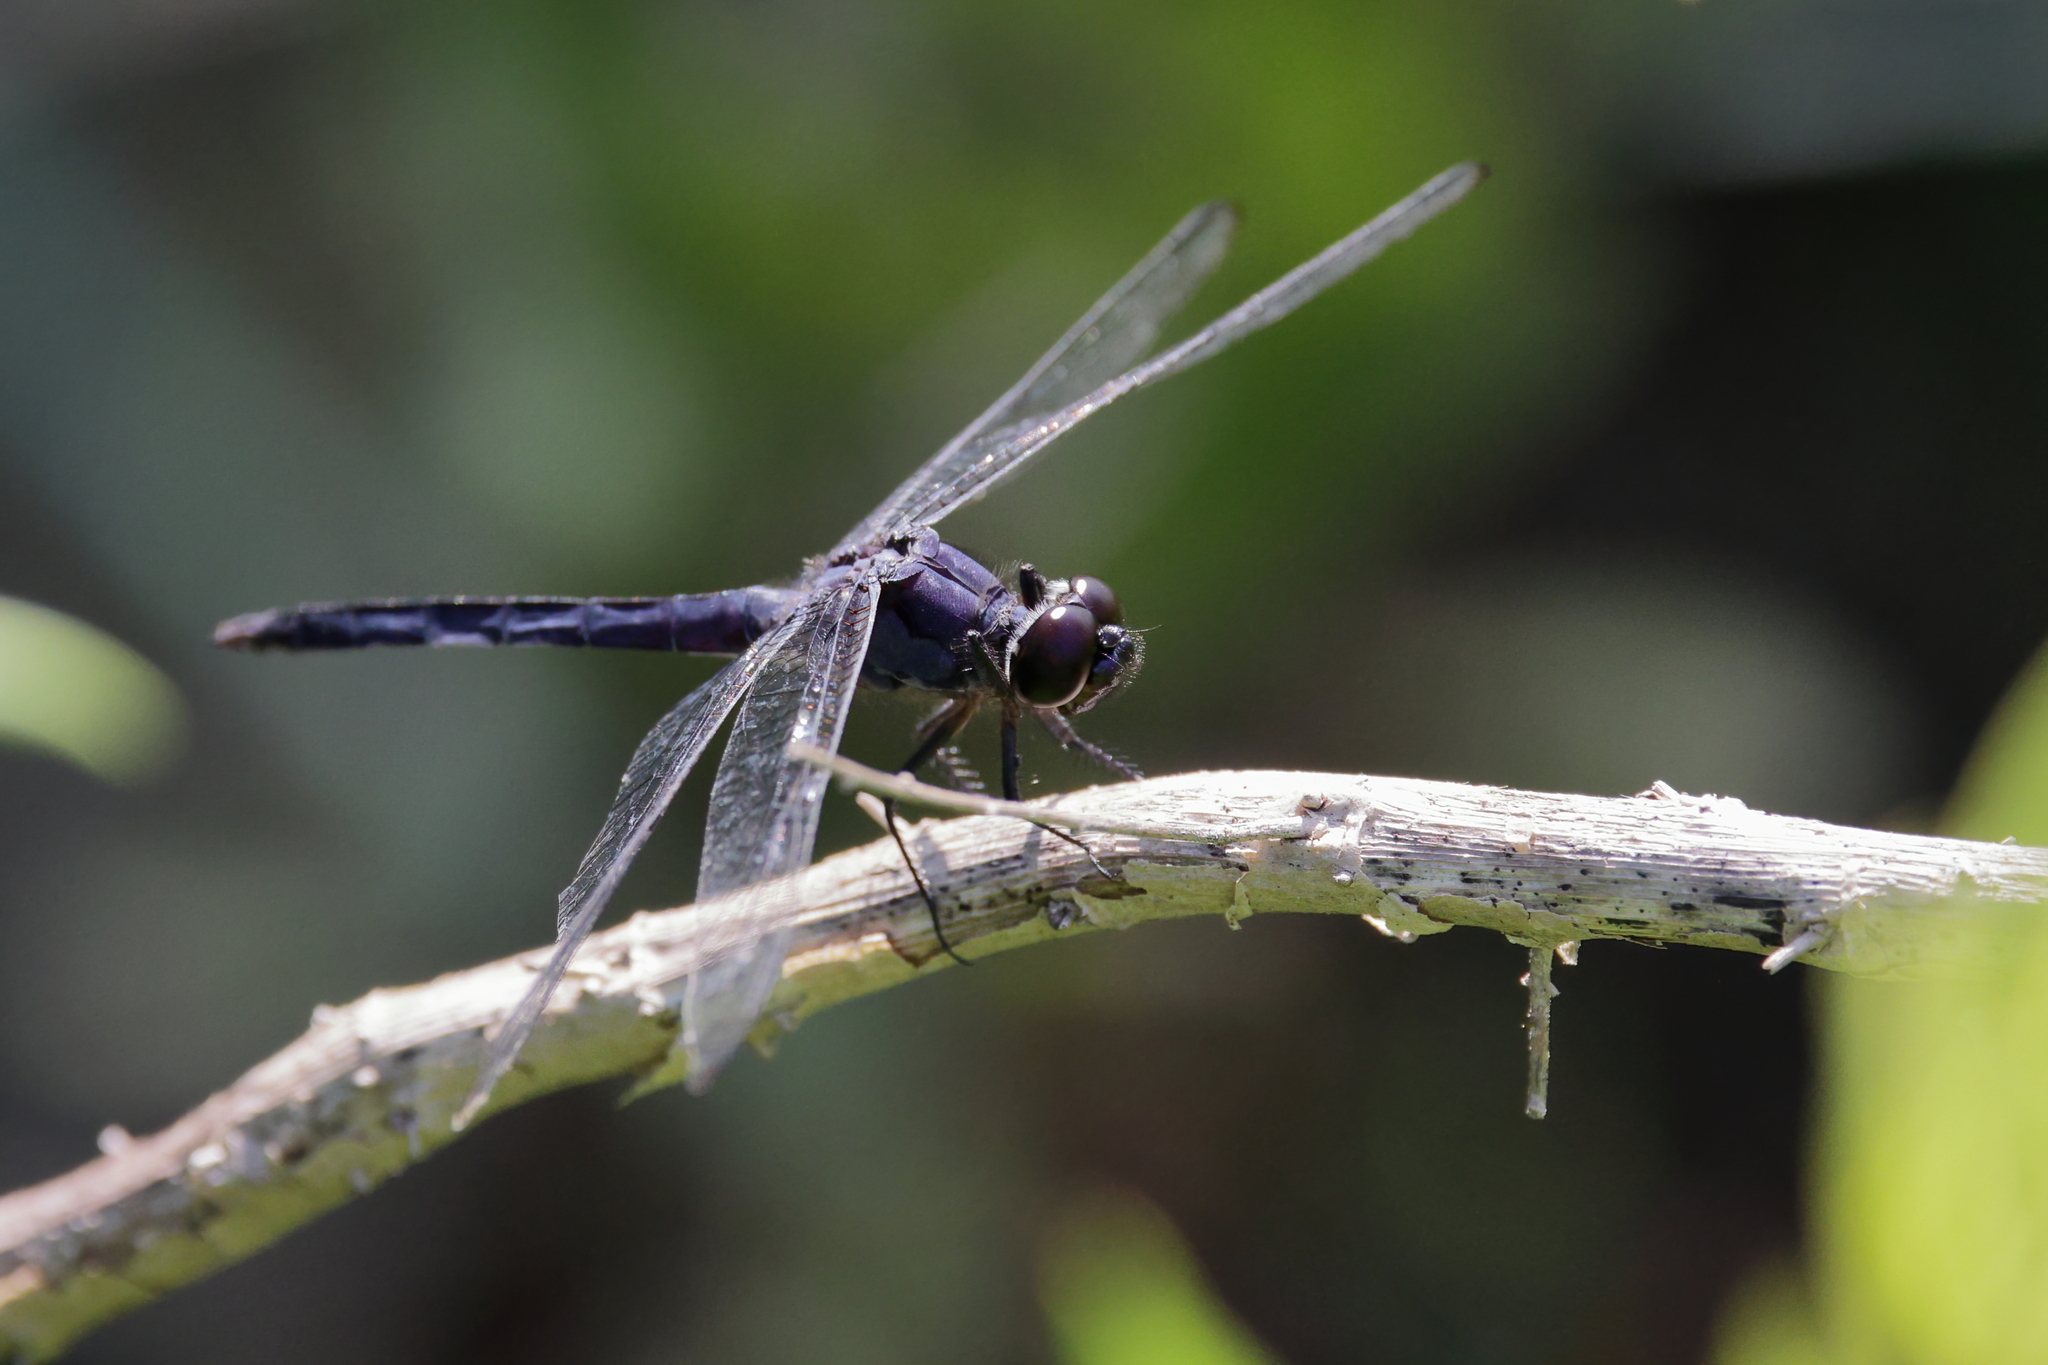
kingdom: Animalia
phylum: Arthropoda
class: Insecta
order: Odonata
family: Libellulidae
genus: Libellula
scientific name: Libellula incesta
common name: Slaty skimmer
